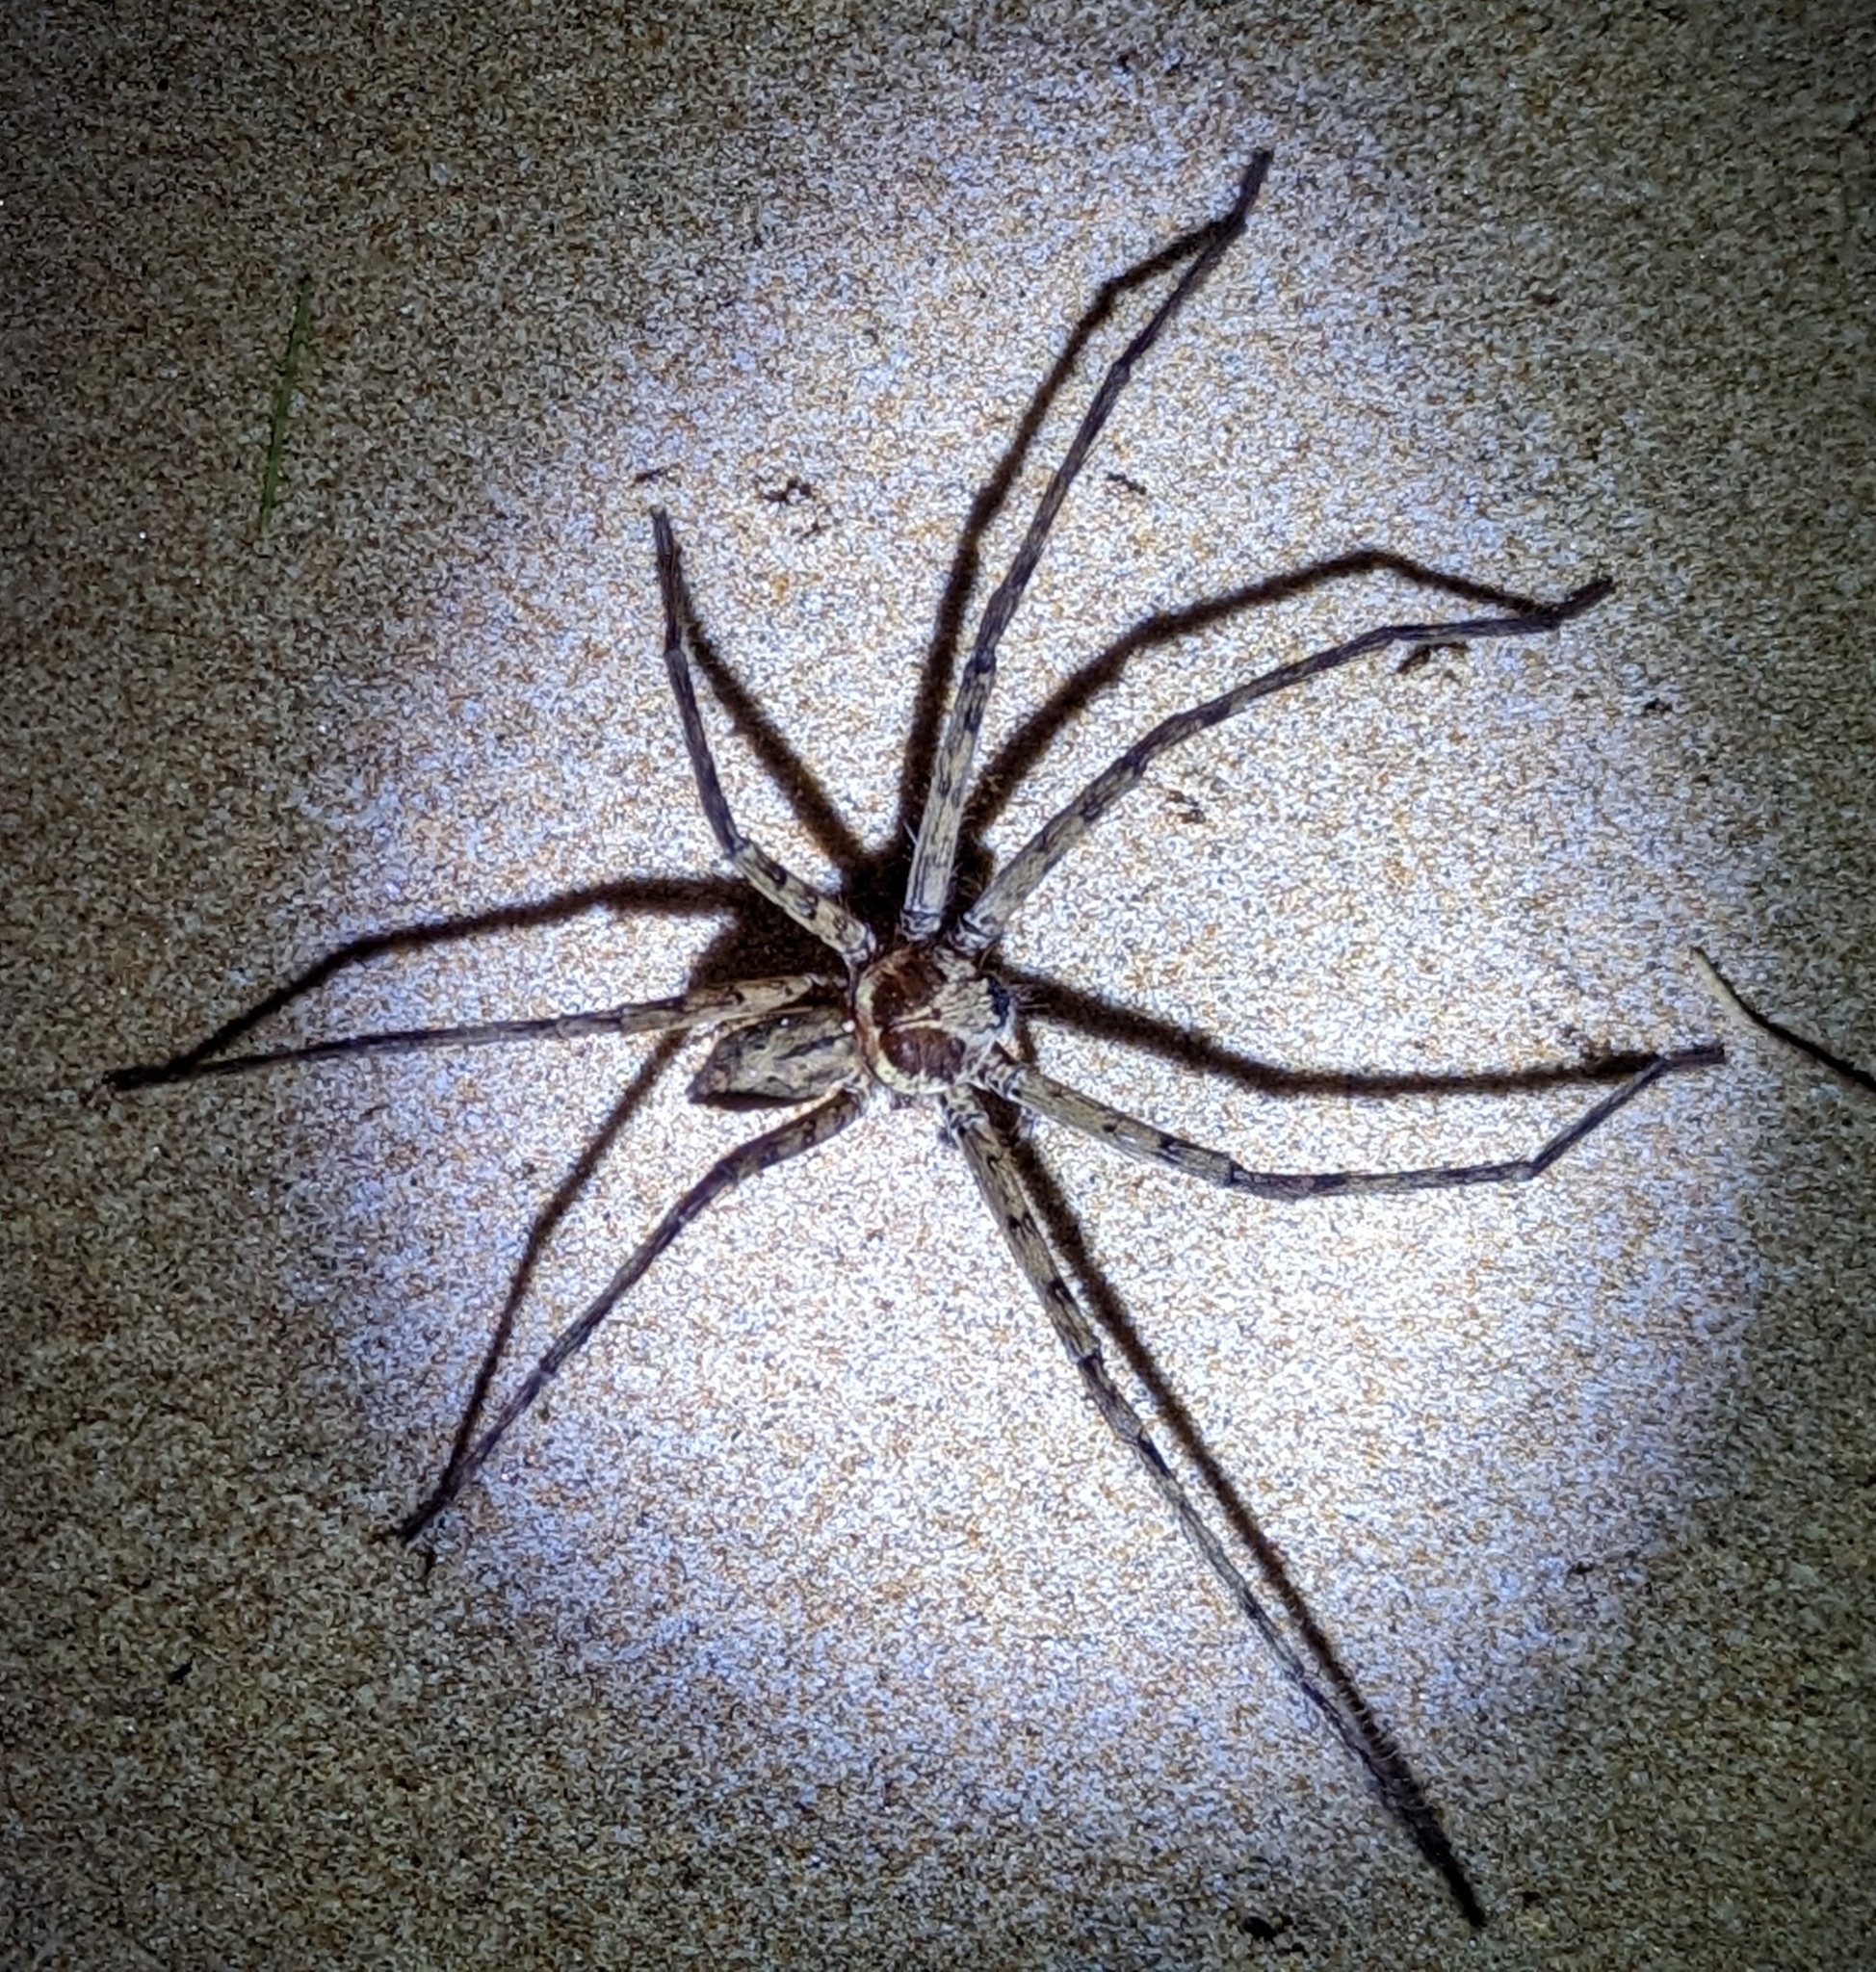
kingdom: Animalia
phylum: Arthropoda
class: Arachnida
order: Araneae
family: Sparassidae
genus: Heteropoda
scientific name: Heteropoda venatoria
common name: Huntsman spider
